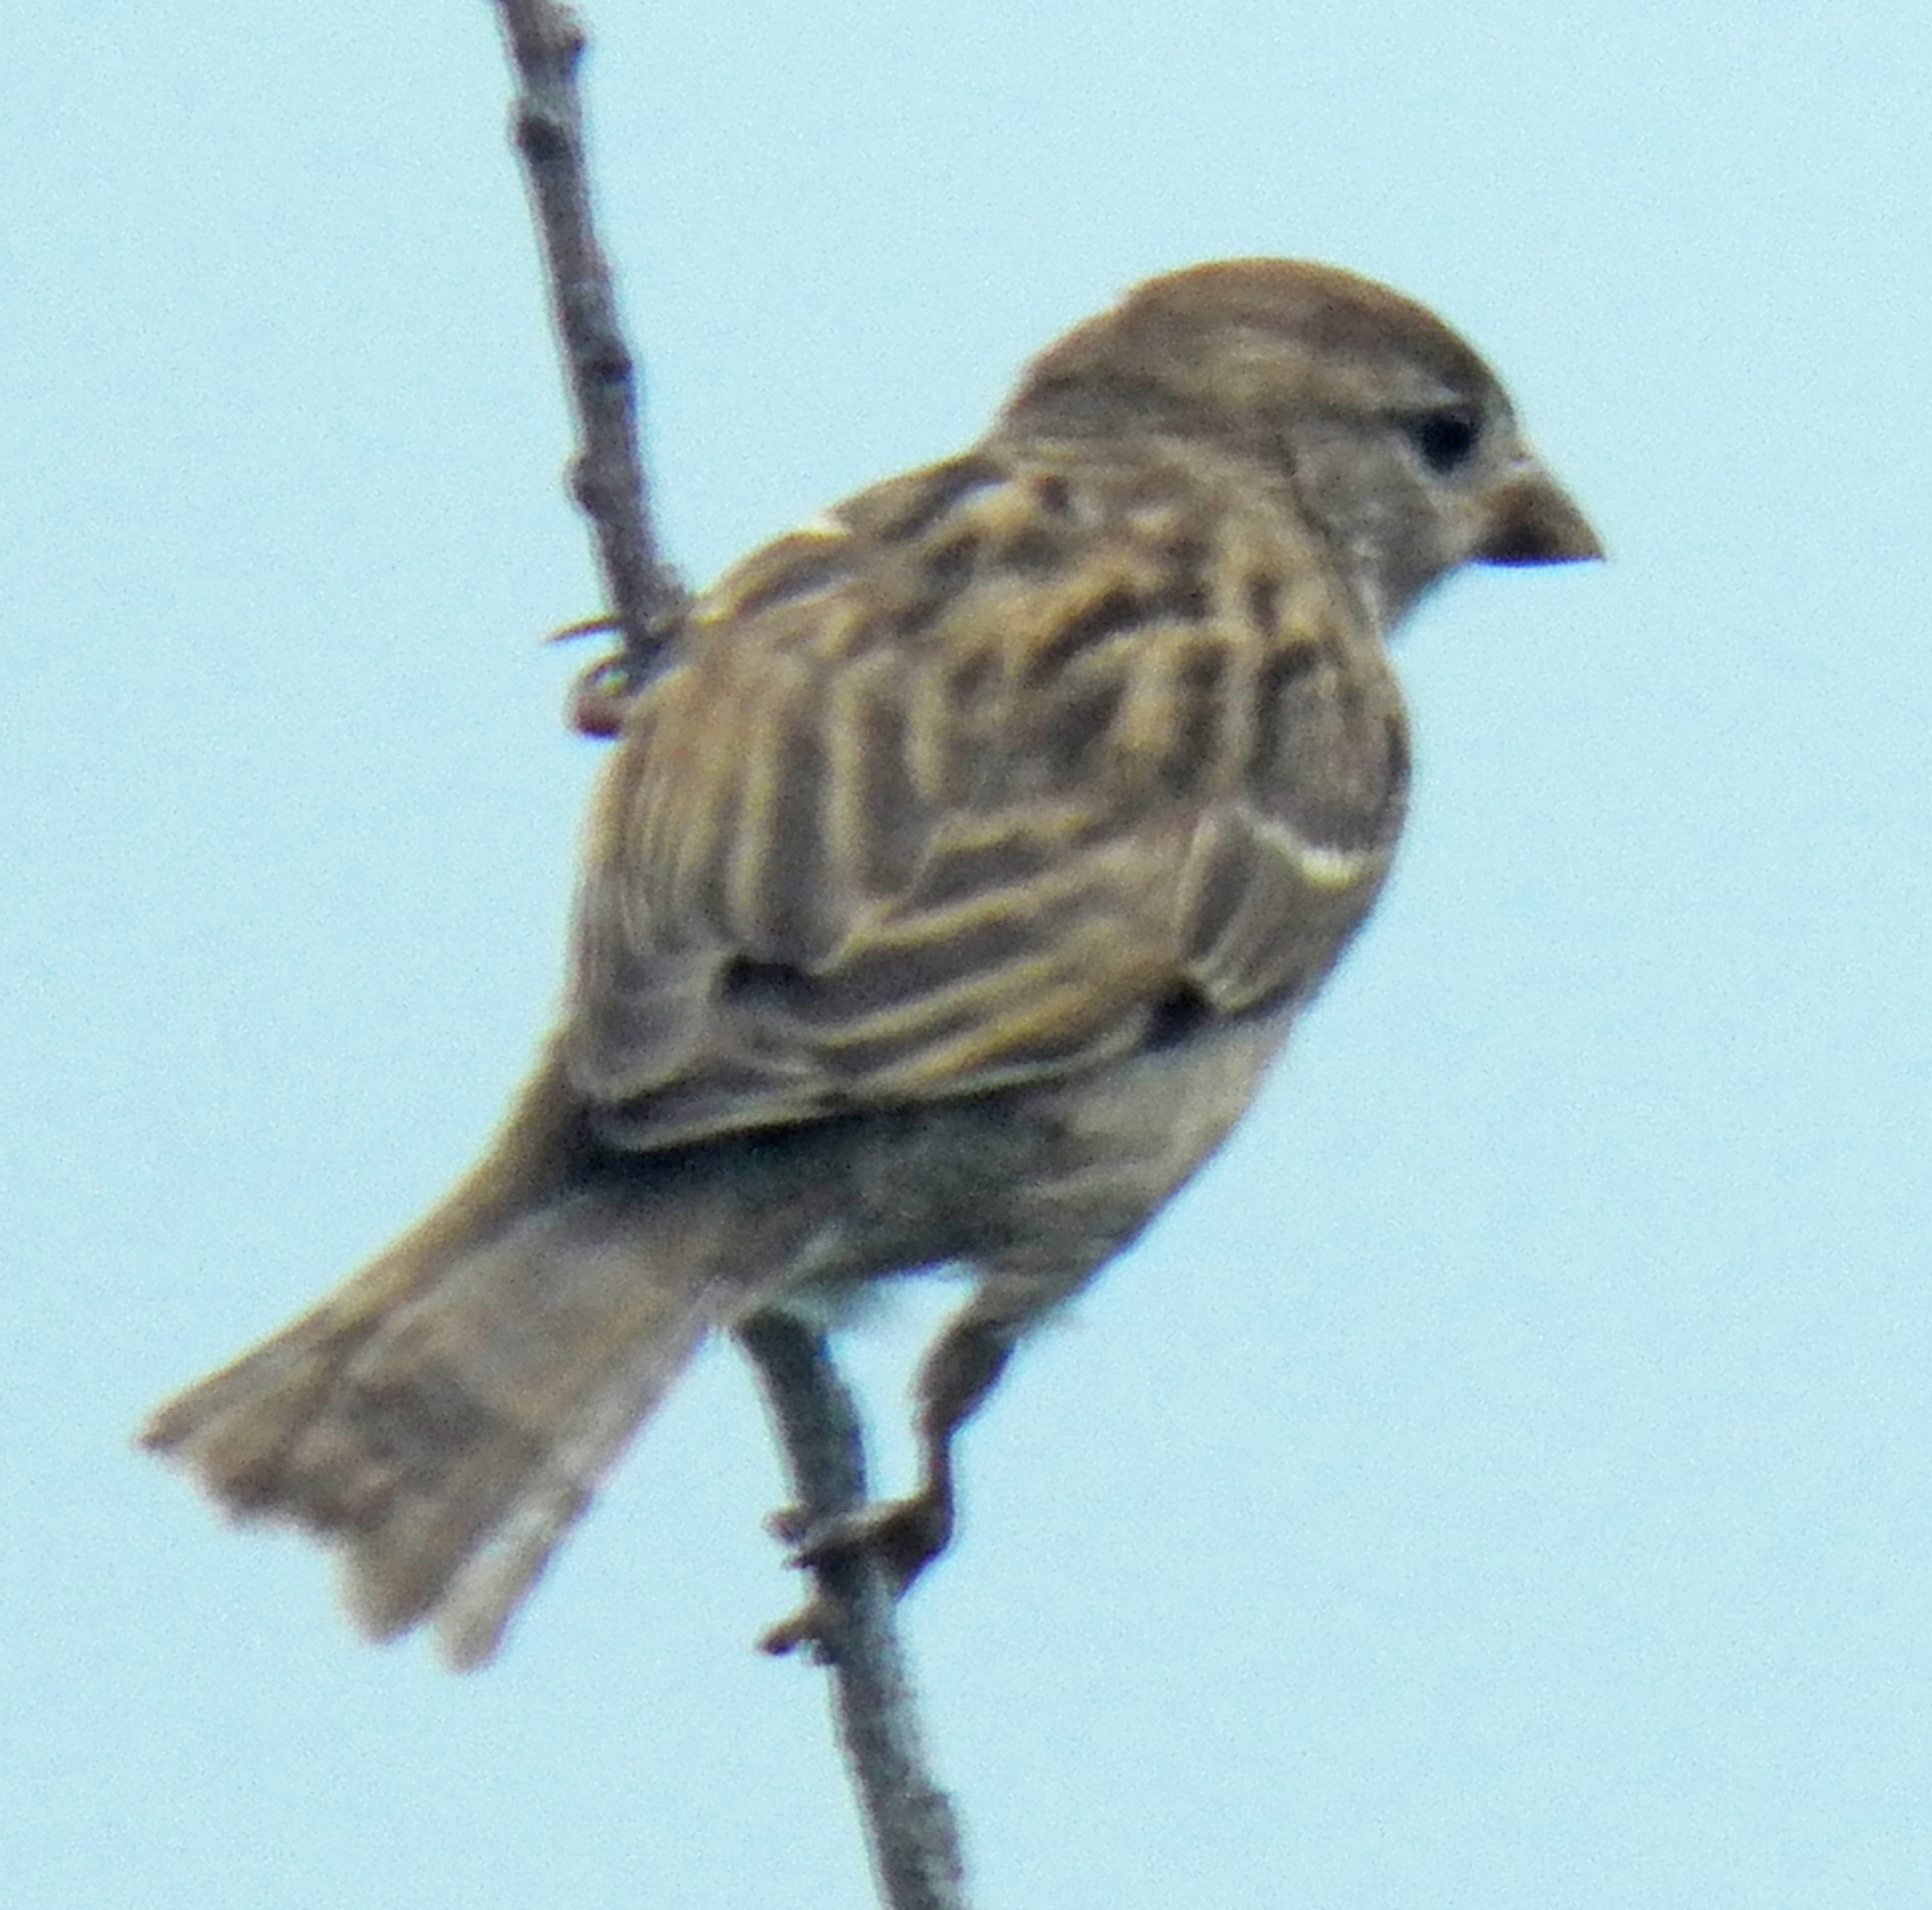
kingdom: Animalia
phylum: Chordata
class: Aves
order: Passeriformes
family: Passeridae
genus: Passer
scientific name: Passer domesticus
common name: House sparrow
